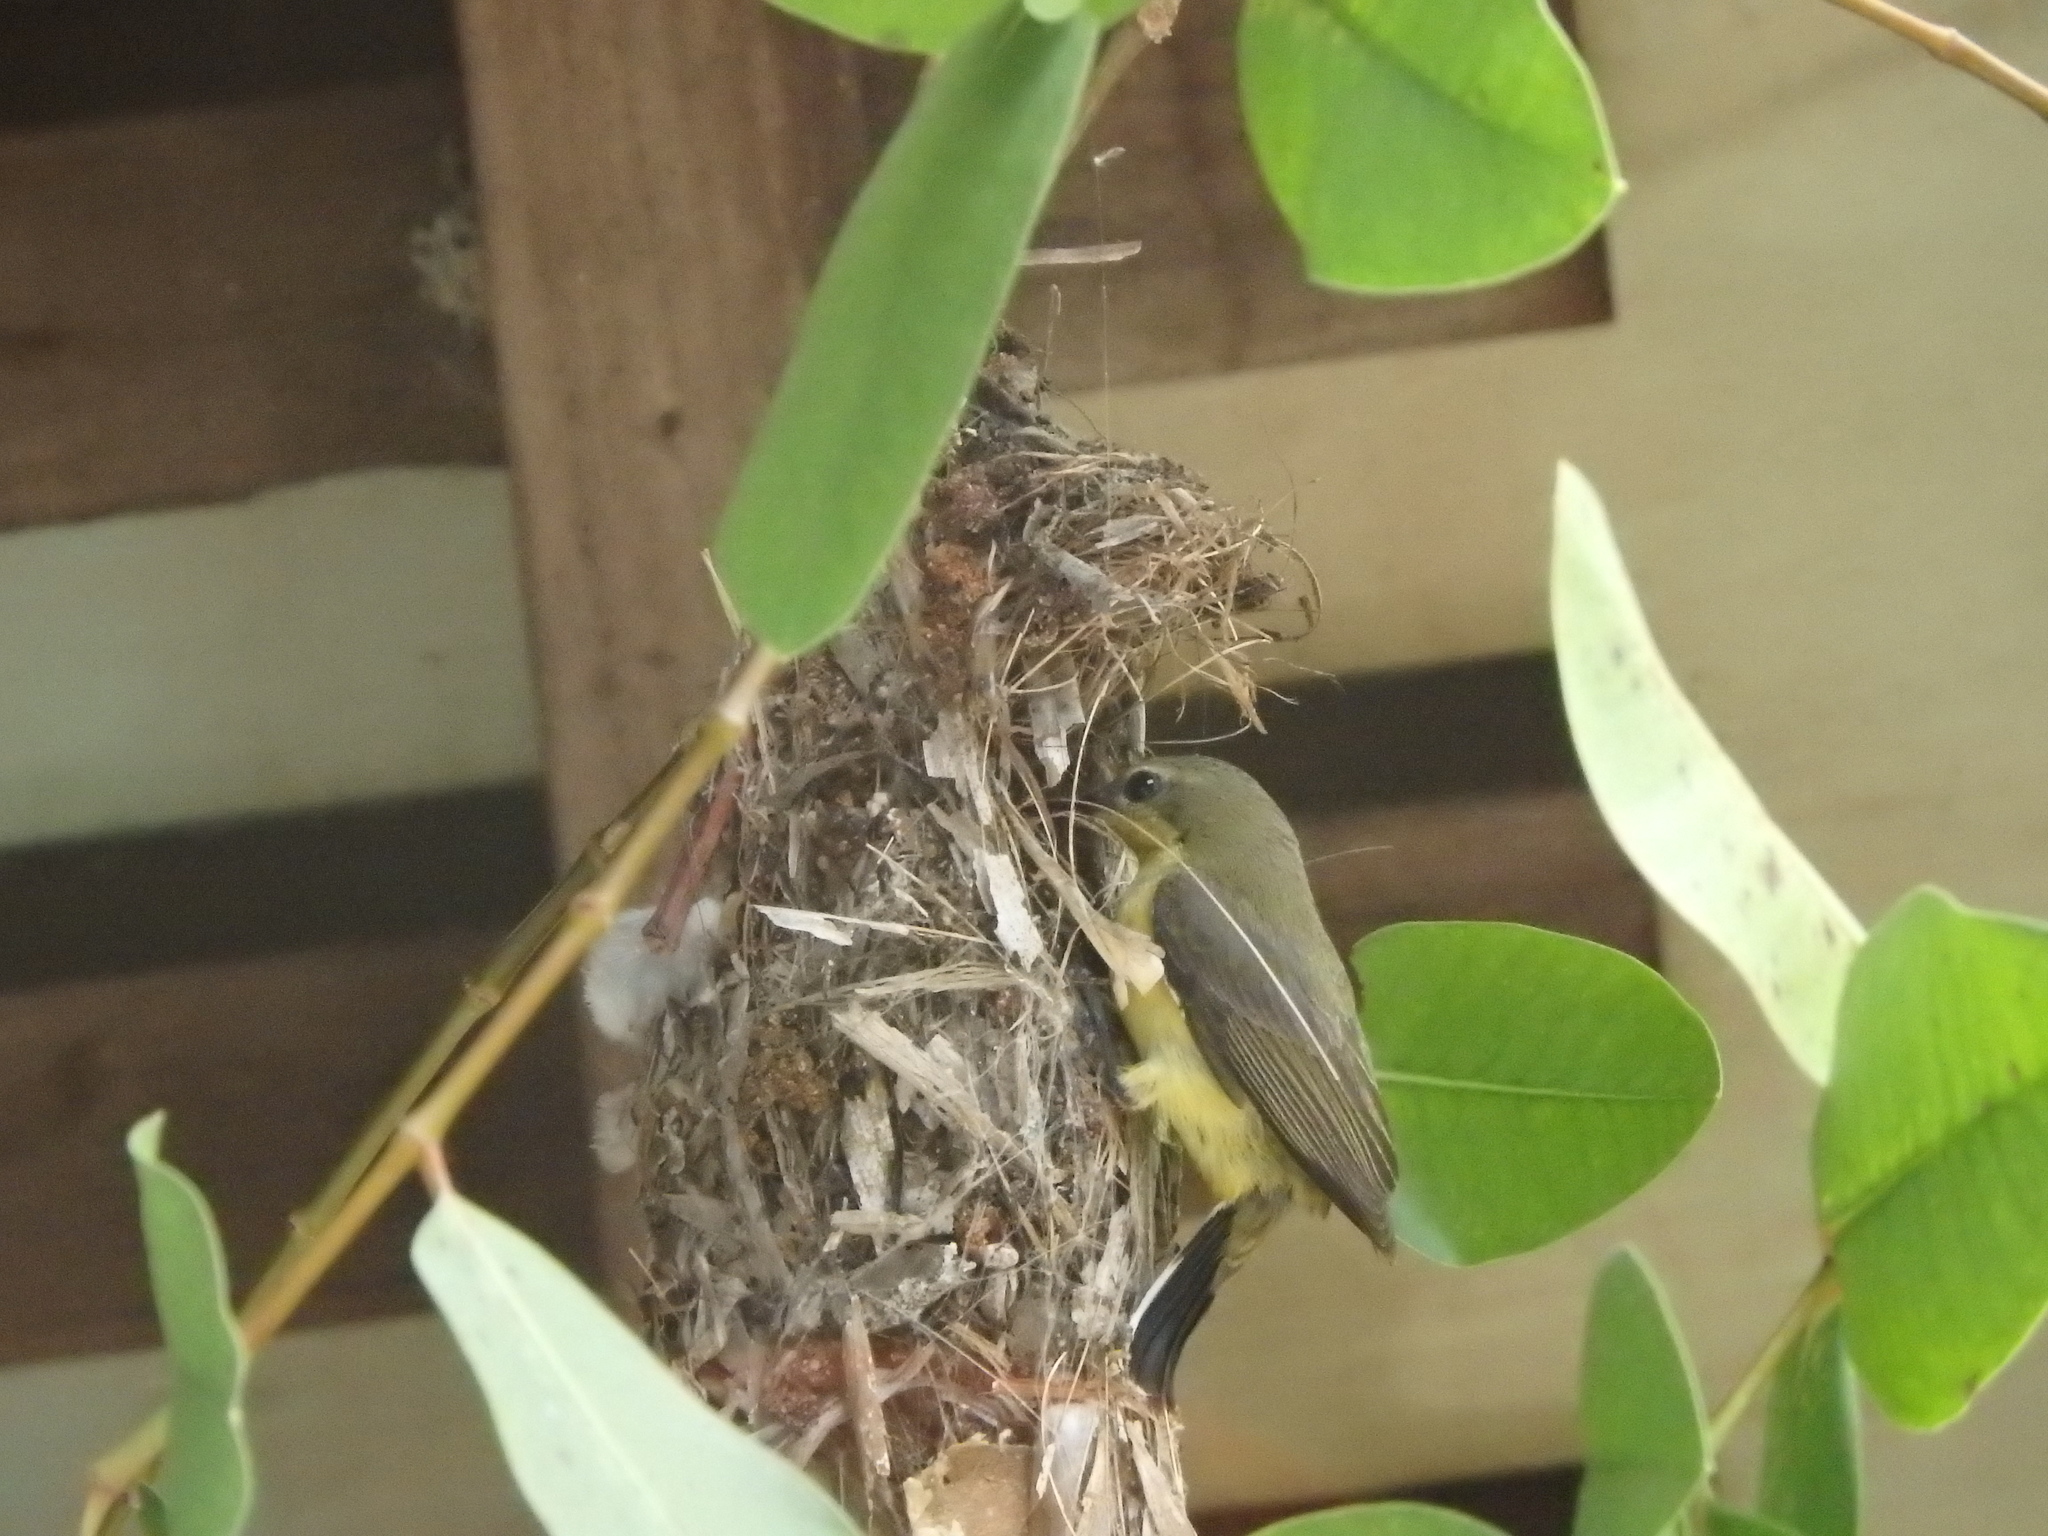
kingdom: Animalia
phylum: Chordata
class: Aves
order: Passeriformes
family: Nectariniidae
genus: Cinnyris
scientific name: Cinnyris
